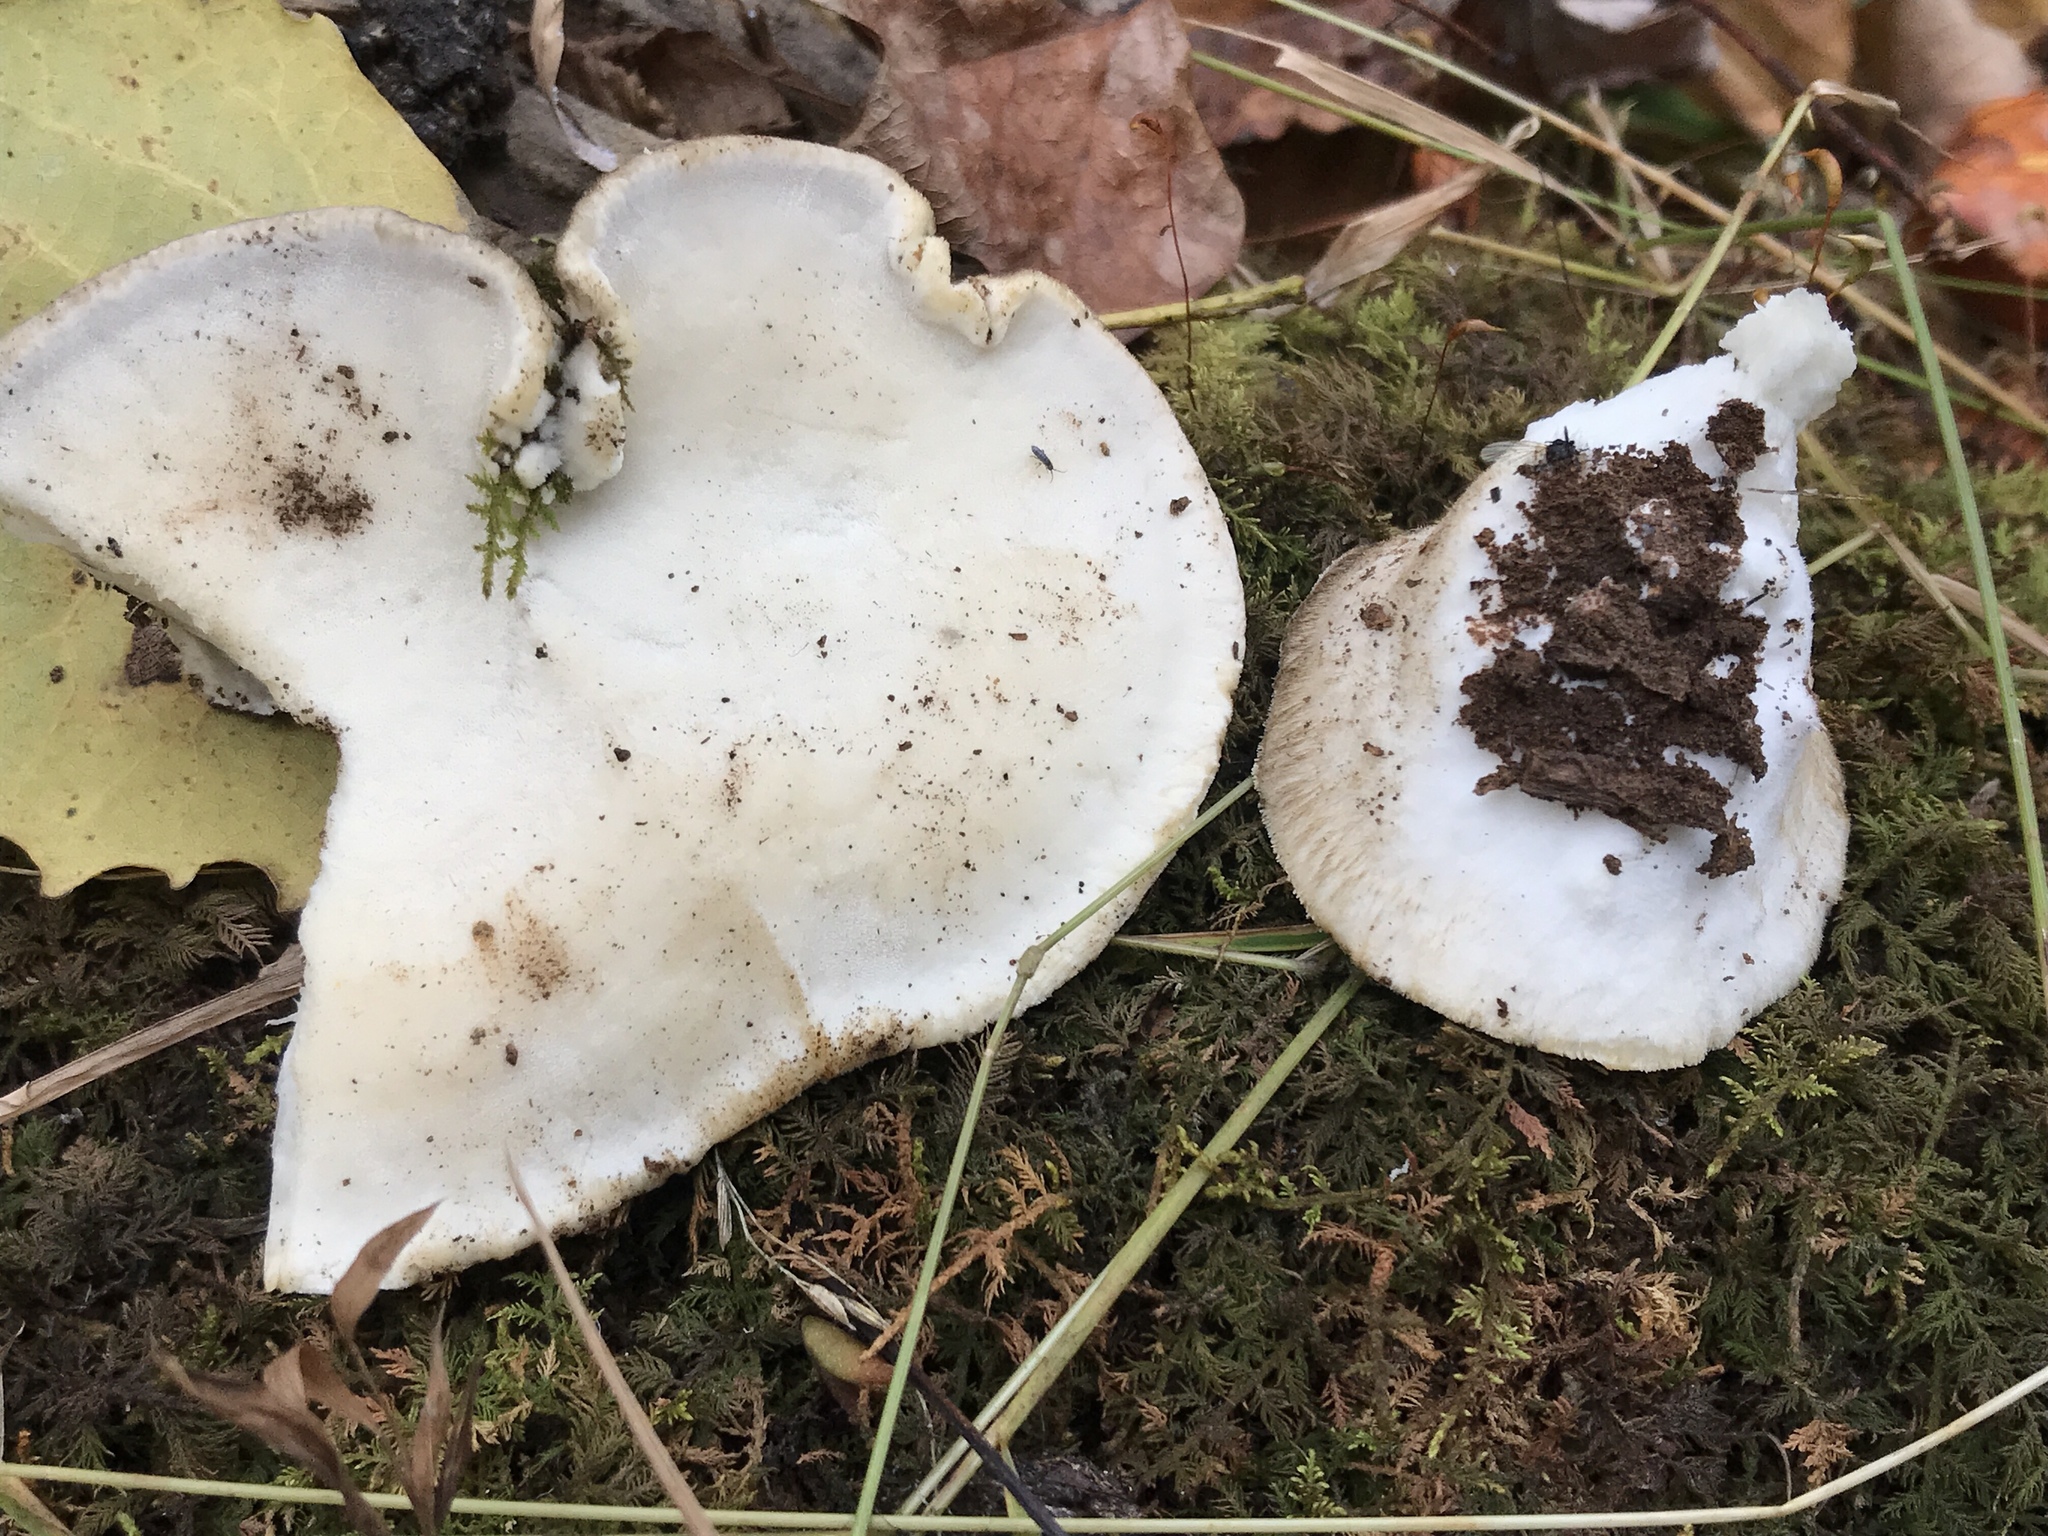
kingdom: Fungi
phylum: Basidiomycota
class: Agaricomycetes
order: Polyporales
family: Incrustoporiaceae
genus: Tyromyces
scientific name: Tyromyces galactinus
